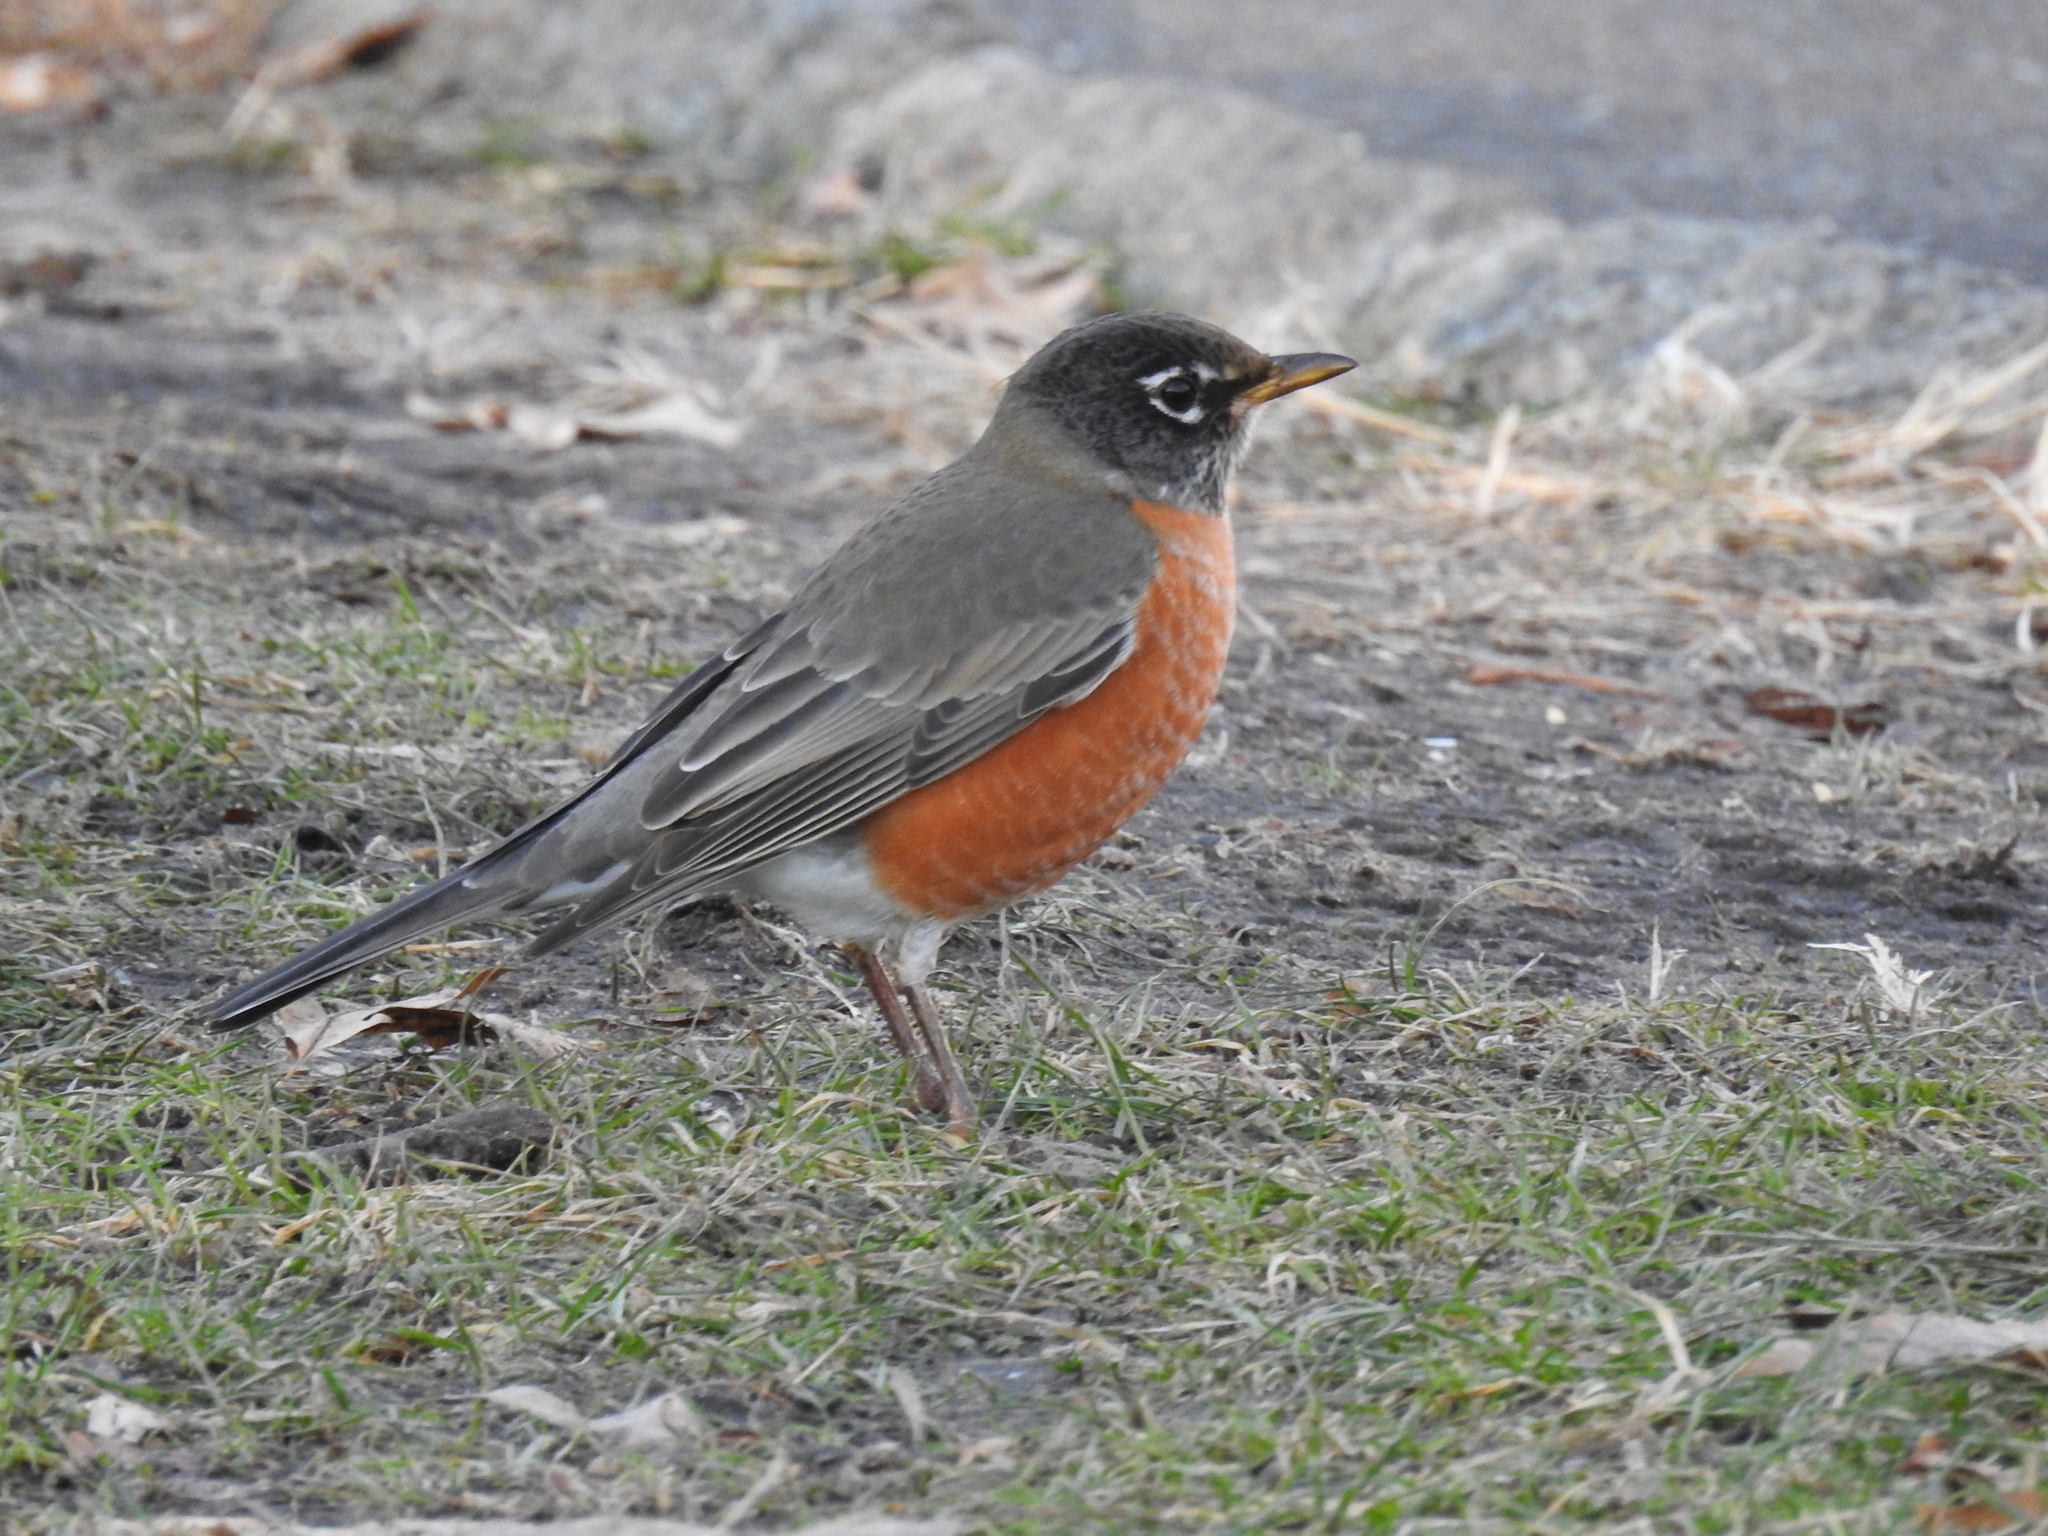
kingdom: Animalia
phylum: Chordata
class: Aves
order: Passeriformes
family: Turdidae
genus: Turdus
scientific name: Turdus migratorius
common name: American robin
